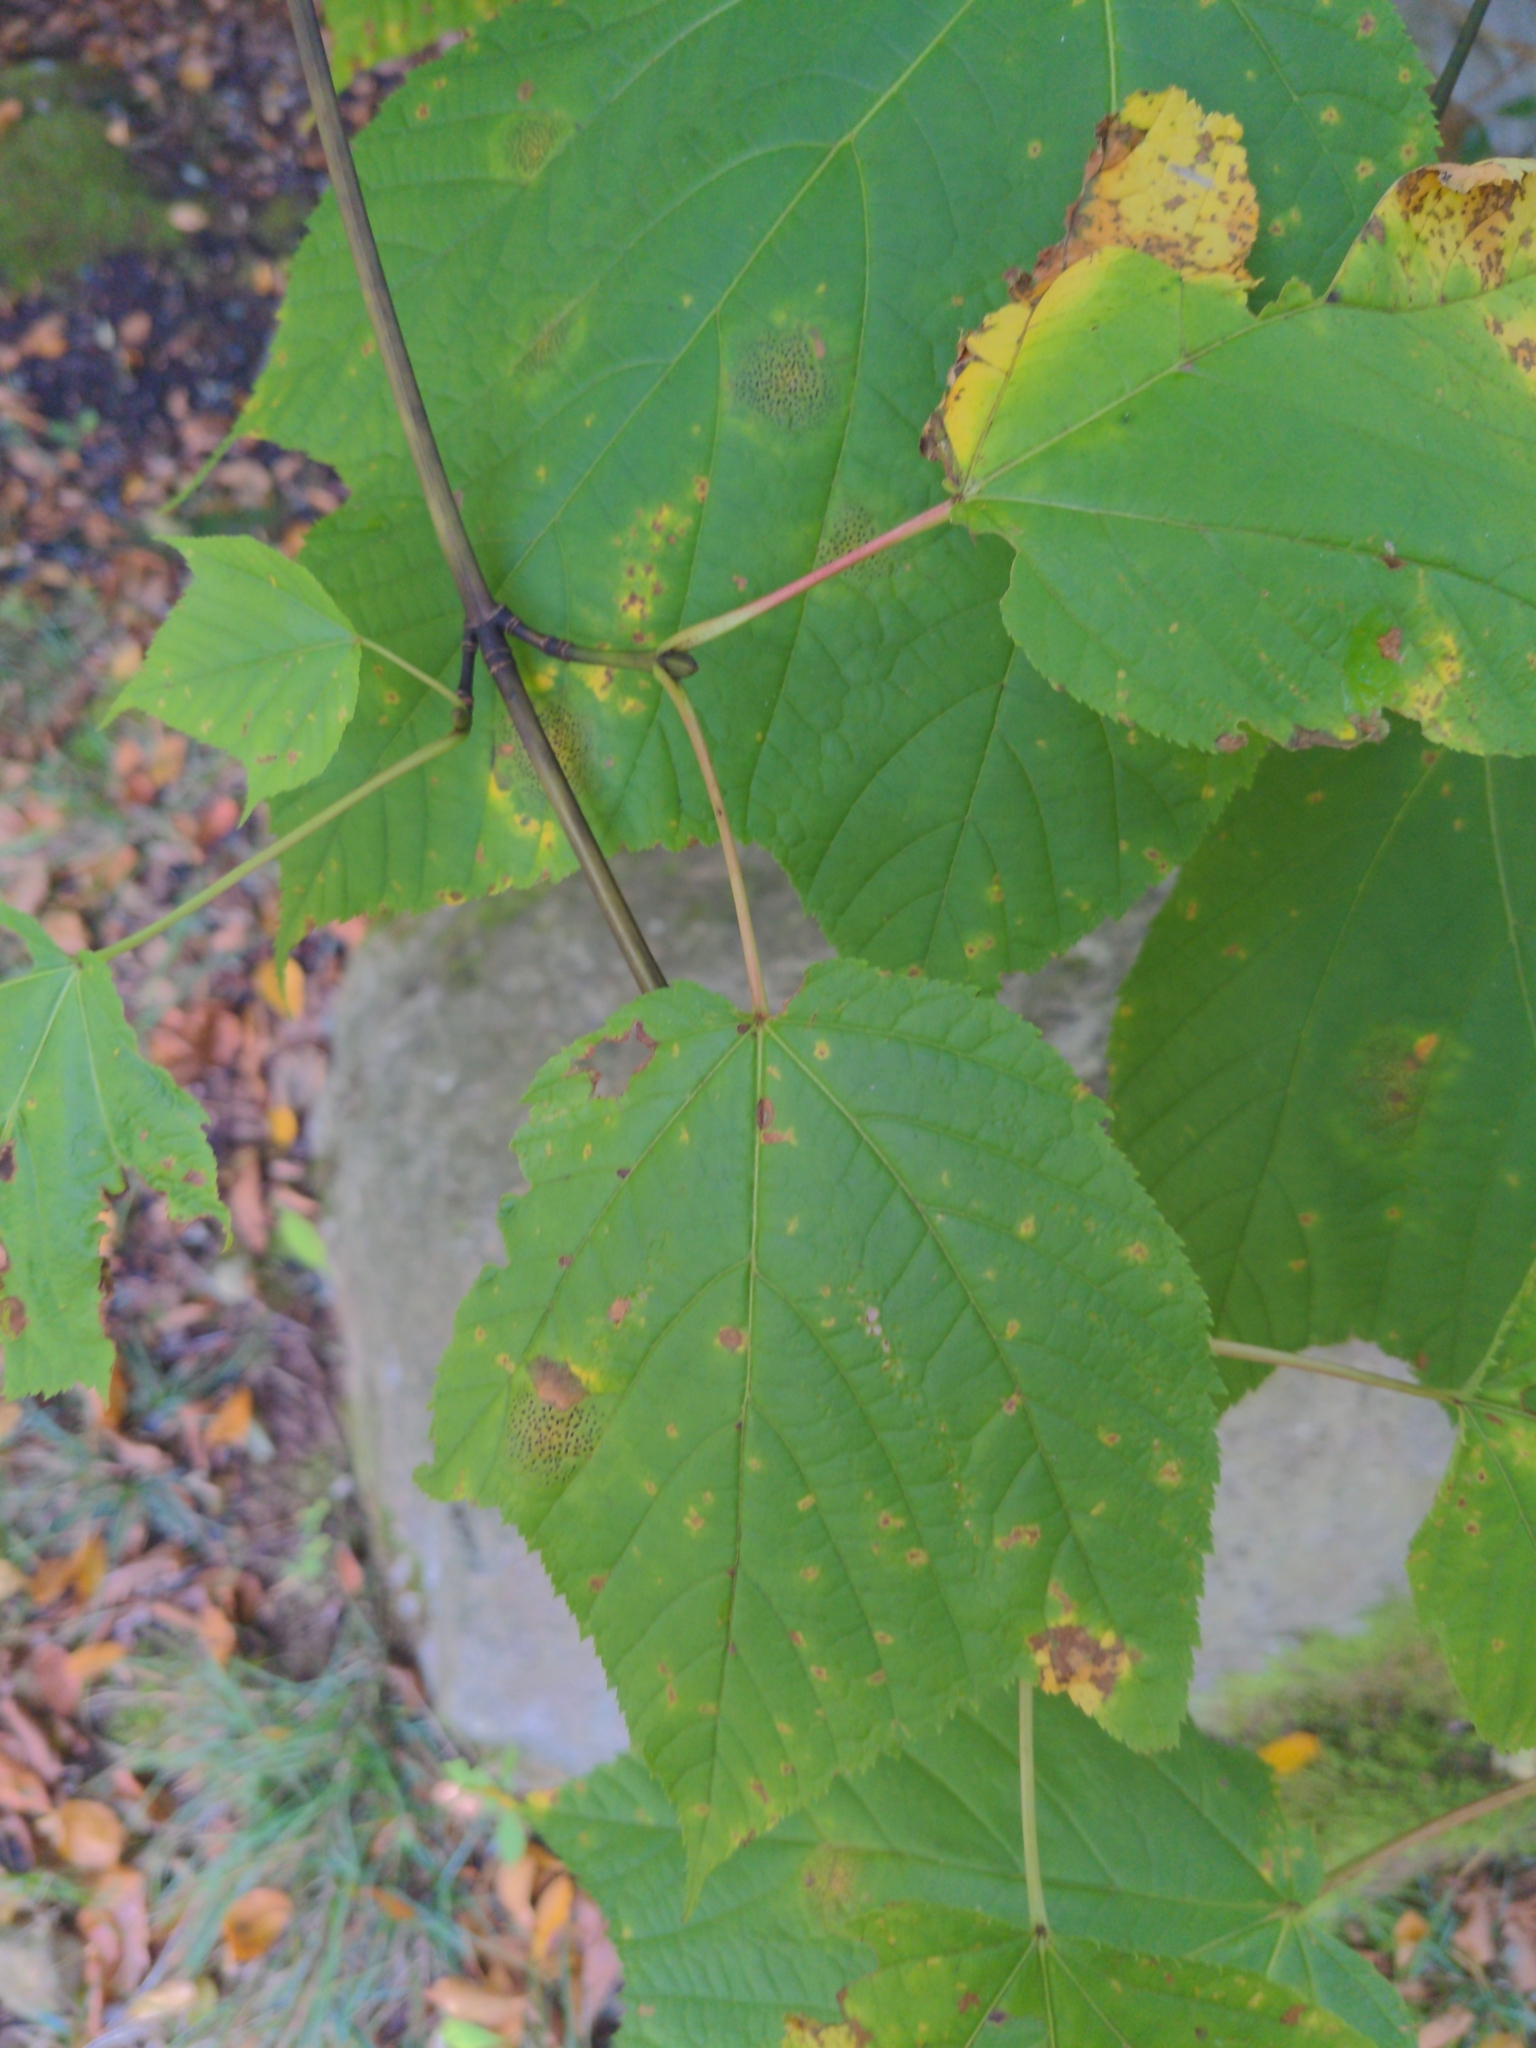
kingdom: Plantae
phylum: Tracheophyta
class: Magnoliopsida
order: Sapindales
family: Sapindaceae
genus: Acer
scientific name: Acer pensylvanicum
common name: Moosewood
